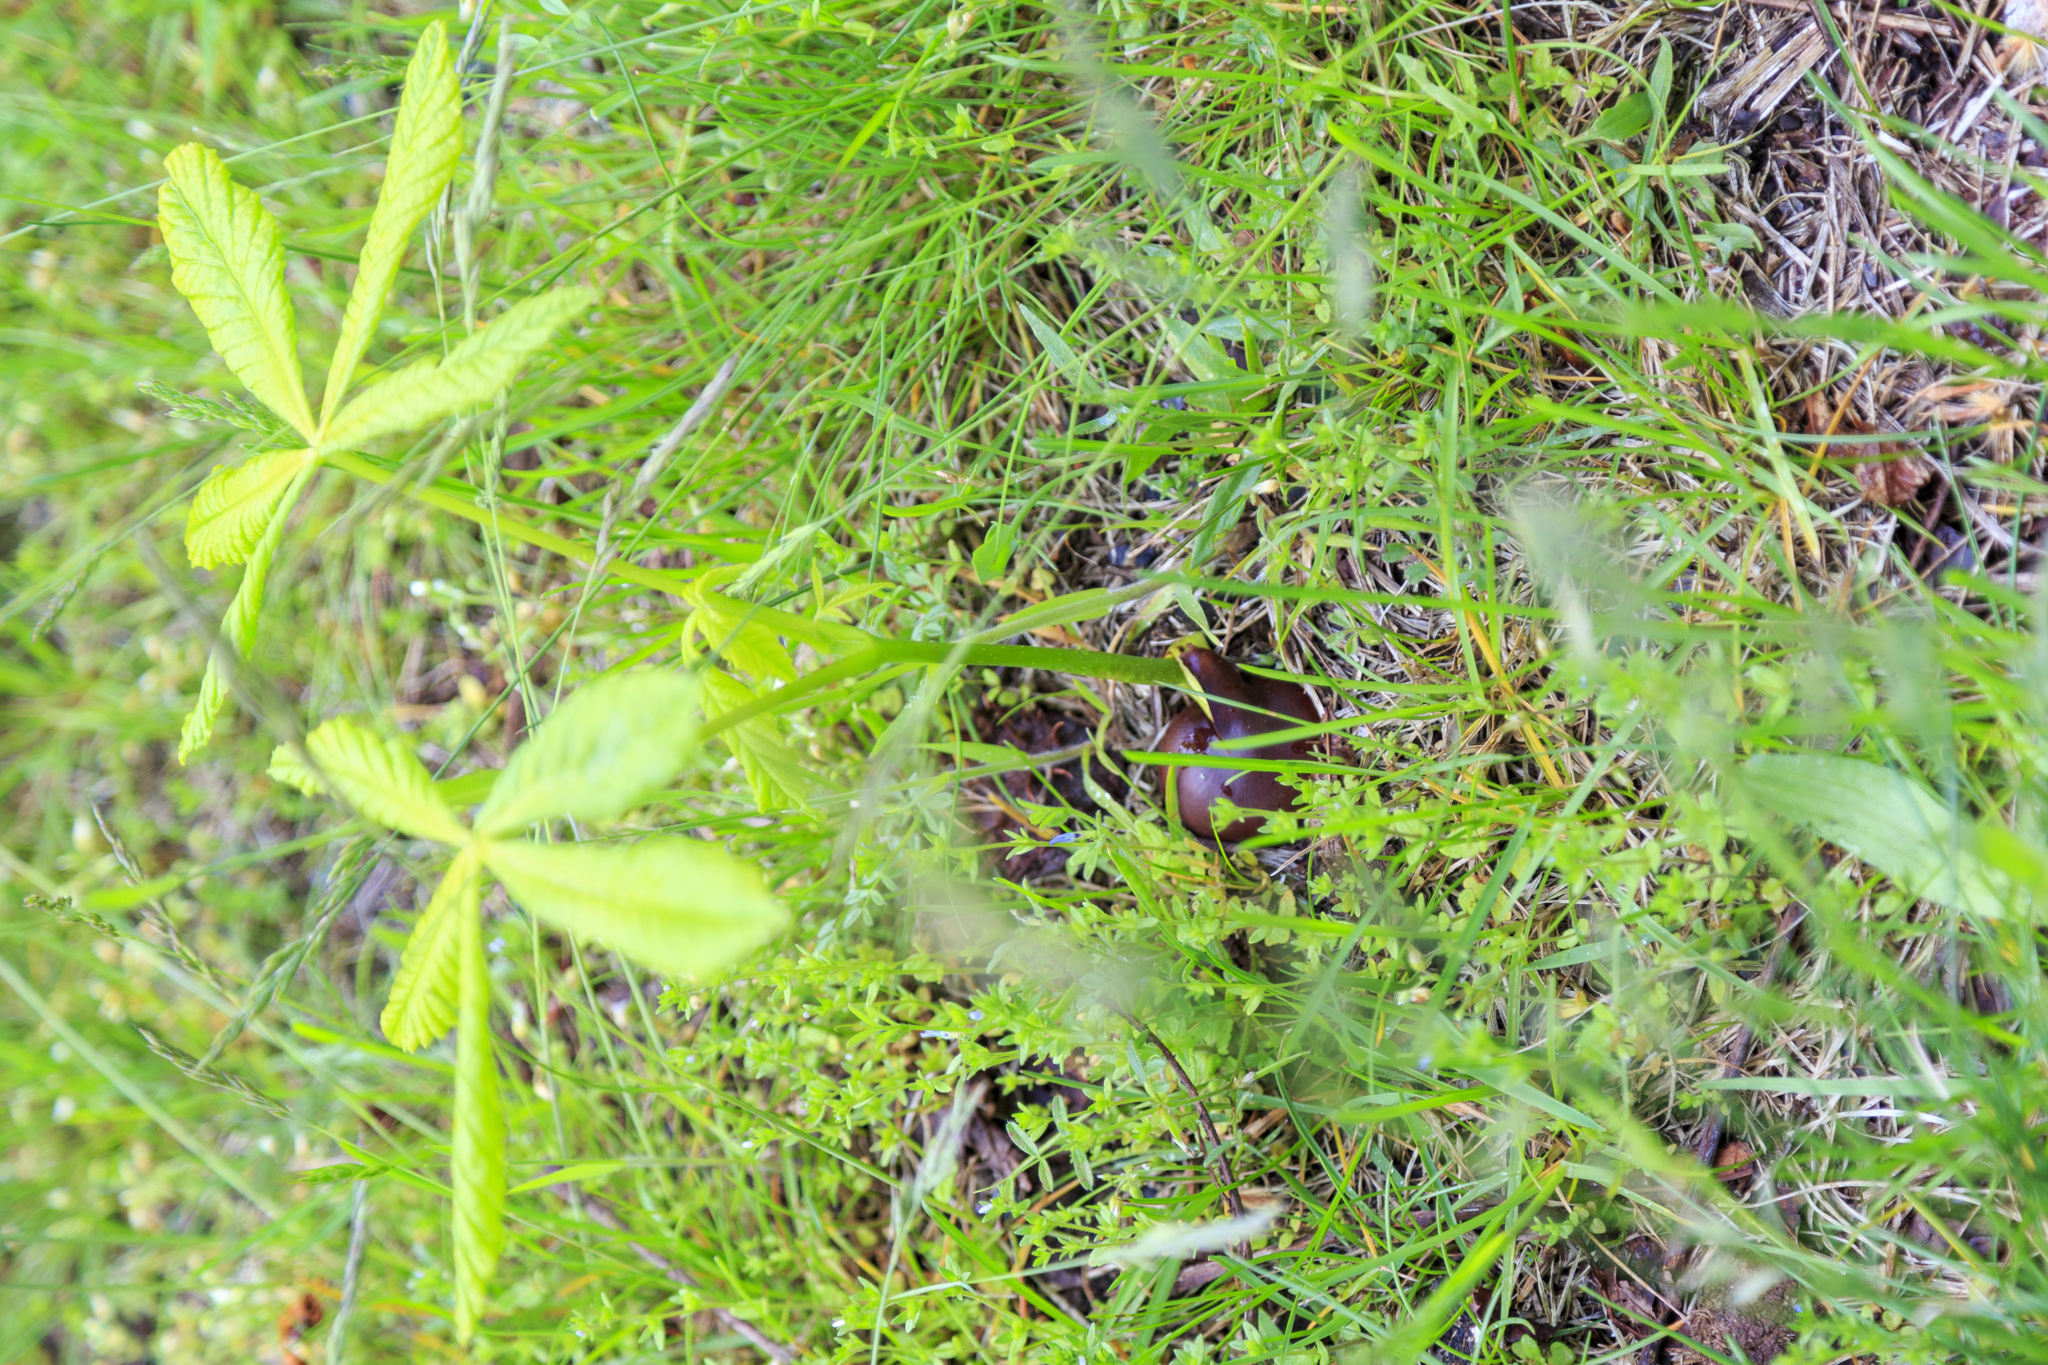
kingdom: Plantae
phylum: Tracheophyta
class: Magnoliopsida
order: Sapindales
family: Sapindaceae
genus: Aesculus
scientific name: Aesculus hippocastanum
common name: Horse-chestnut
